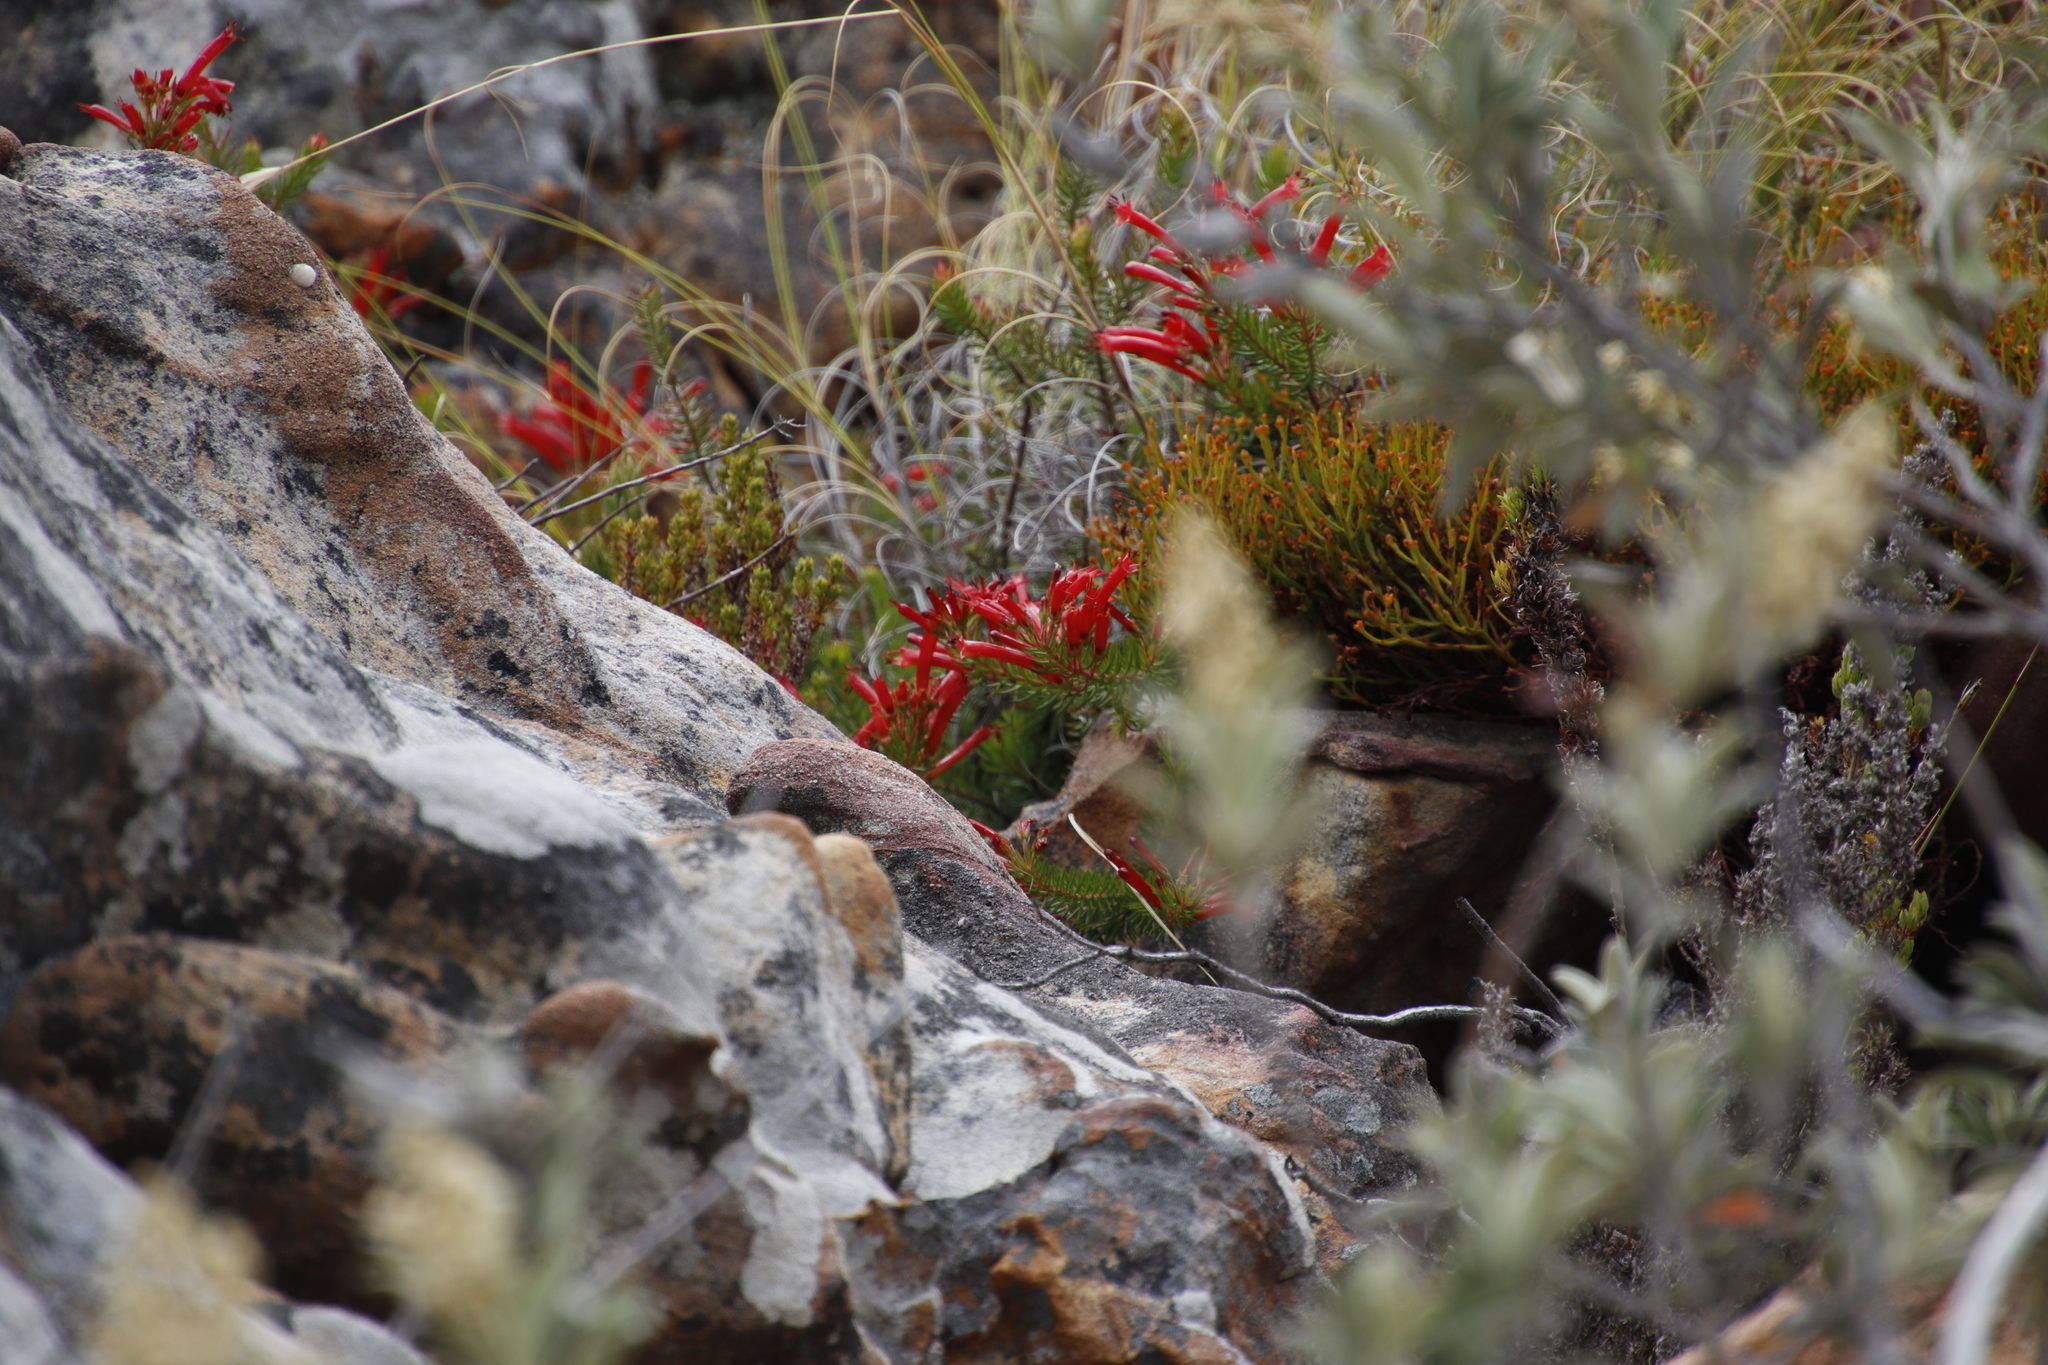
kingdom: Plantae
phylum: Tracheophyta
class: Magnoliopsida
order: Ericales
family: Ericaceae
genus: Erica
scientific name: Erica nevillei
